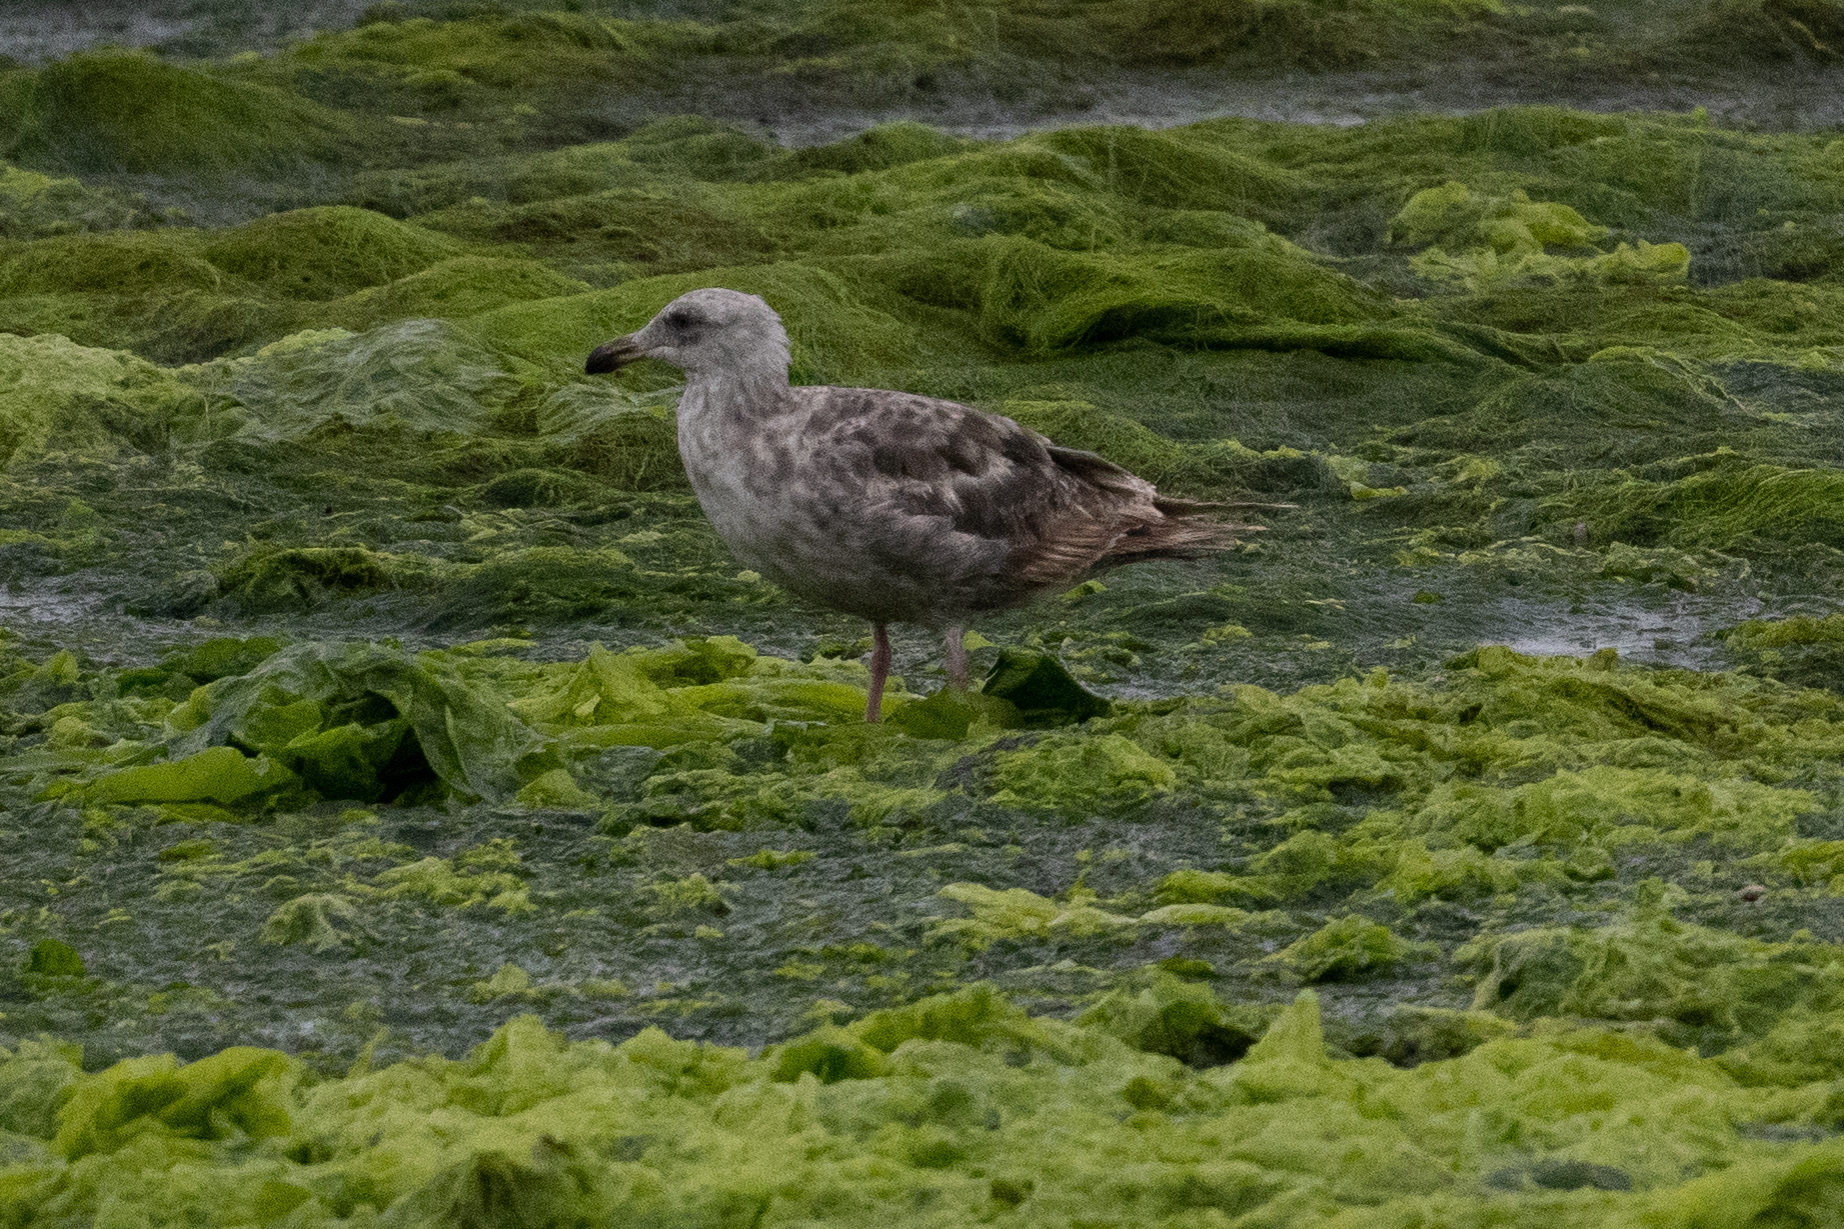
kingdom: Animalia
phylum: Chordata
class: Aves
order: Charadriiformes
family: Laridae
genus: Larus
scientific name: Larus occidentalis
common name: Western gull
